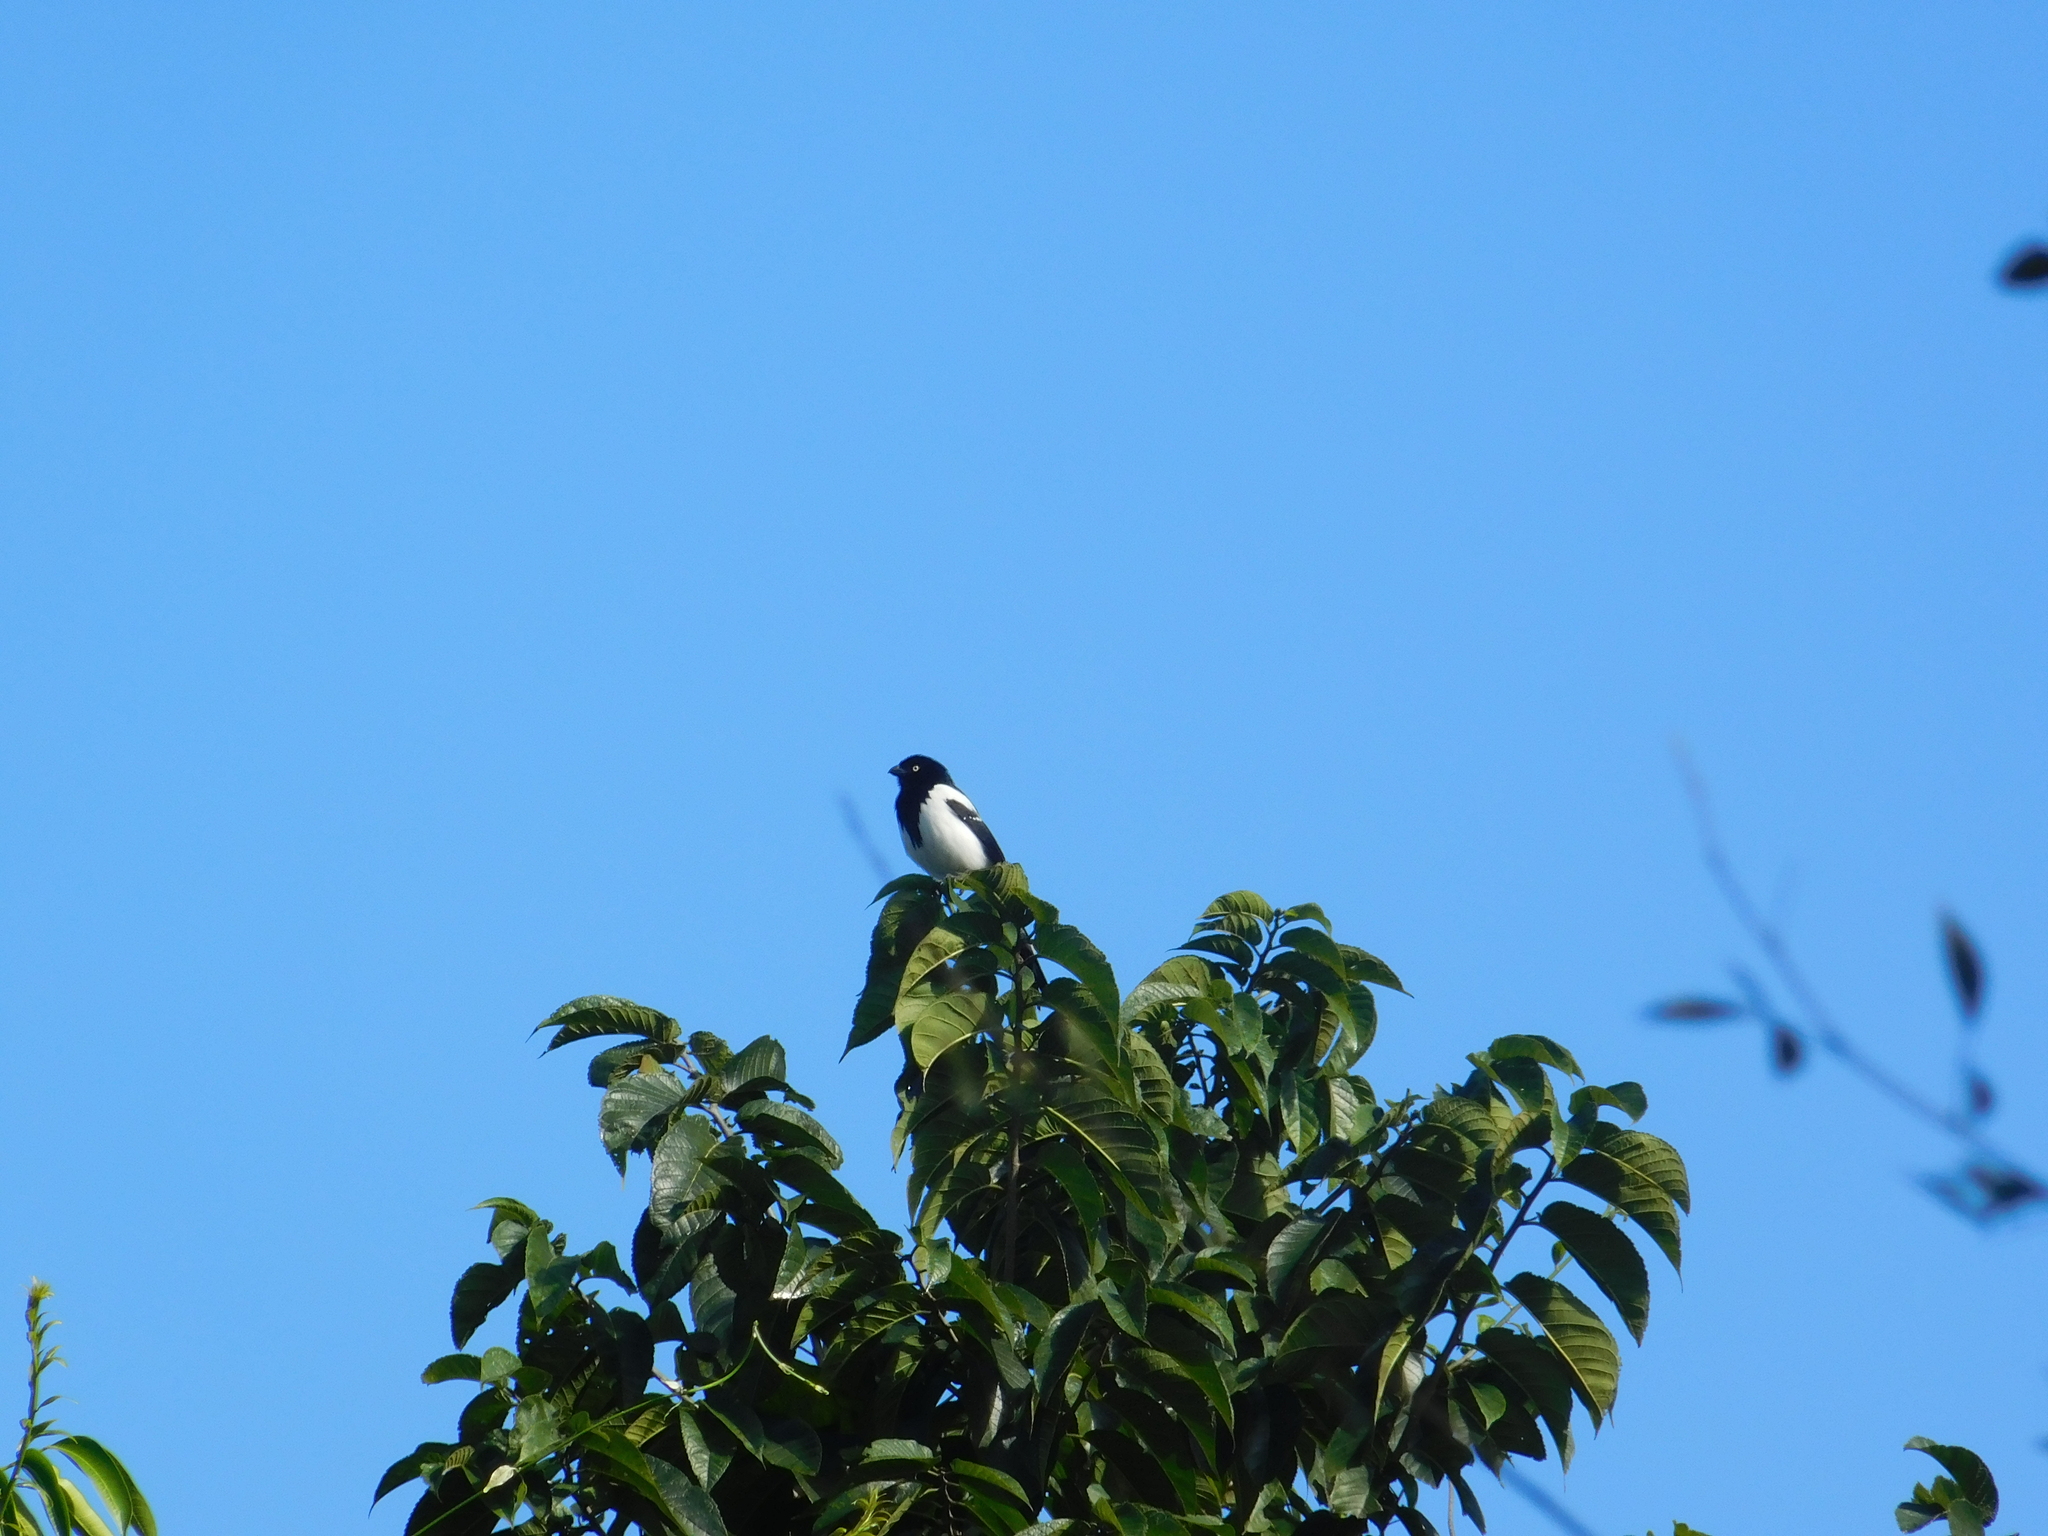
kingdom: Animalia
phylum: Chordata
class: Aves
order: Passeriformes
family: Thraupidae
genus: Cissopis
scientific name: Cissopis leverianus
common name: Magpie tanager
